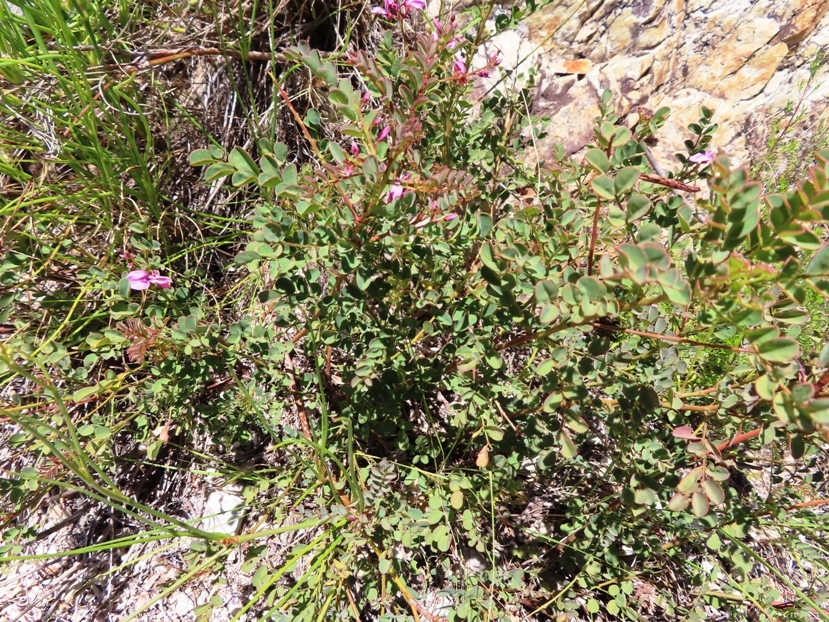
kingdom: Plantae
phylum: Tracheophyta
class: Magnoliopsida
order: Fabales
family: Fabaceae
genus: Indigofera
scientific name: Indigofera langebergensis
